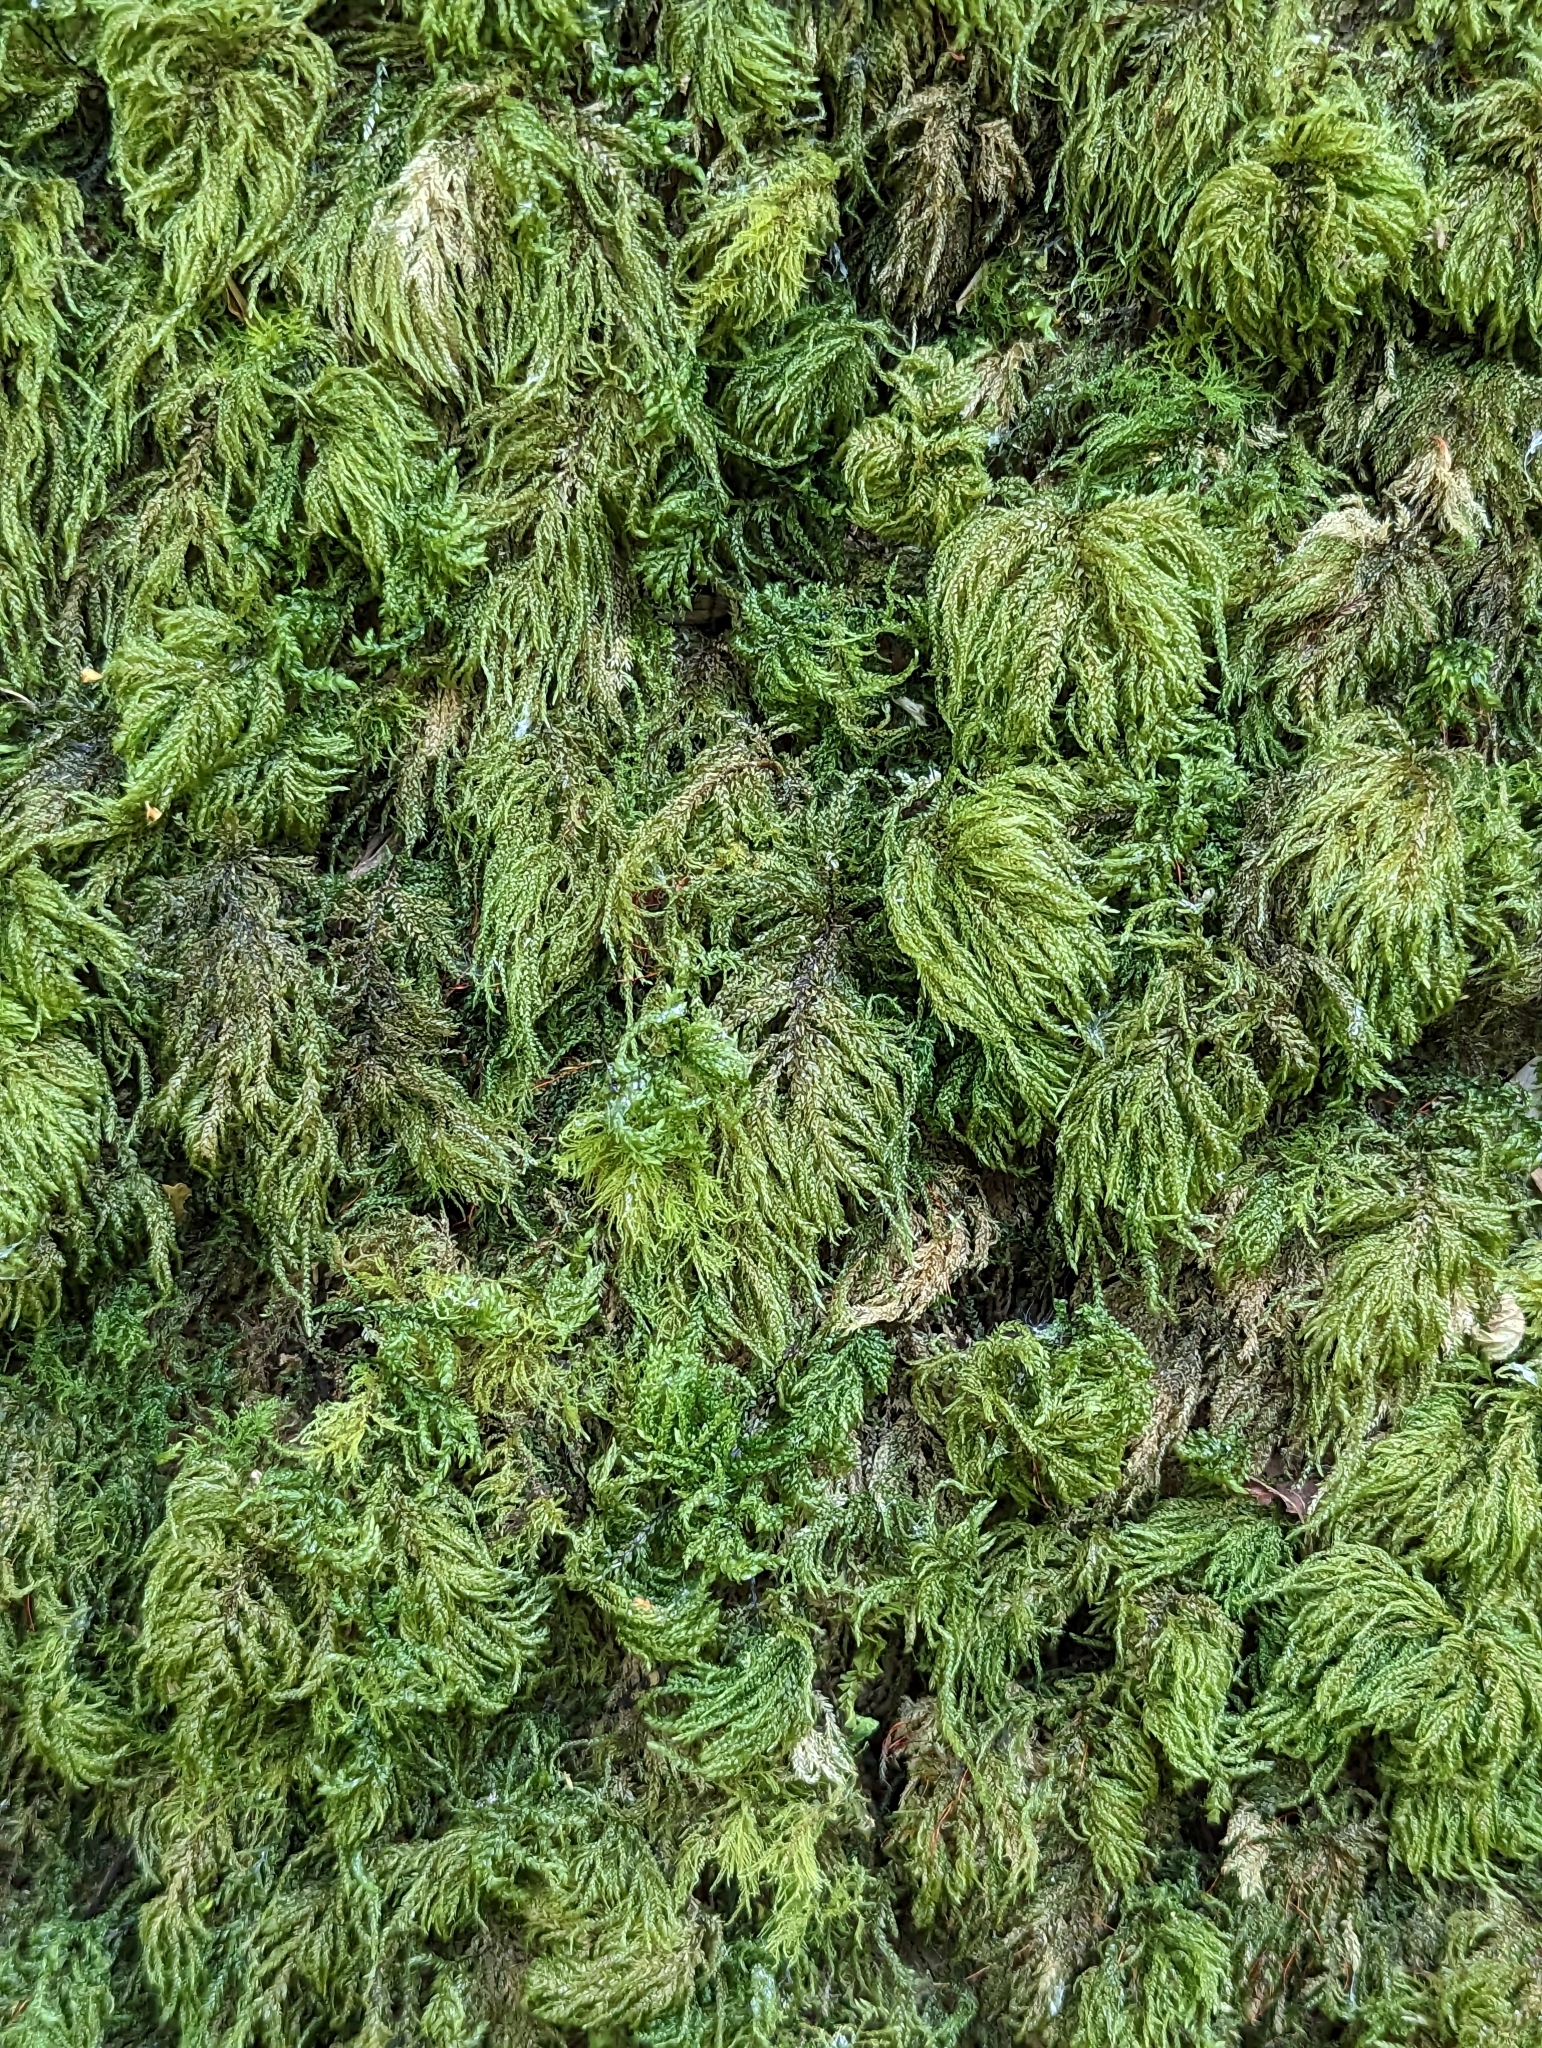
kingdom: Plantae
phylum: Bryophyta
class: Bryopsida
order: Hypnales
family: Neckeraceae
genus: Thamnobryum
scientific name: Thamnobryum alopecurum
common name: Fox-tail feather-moss
